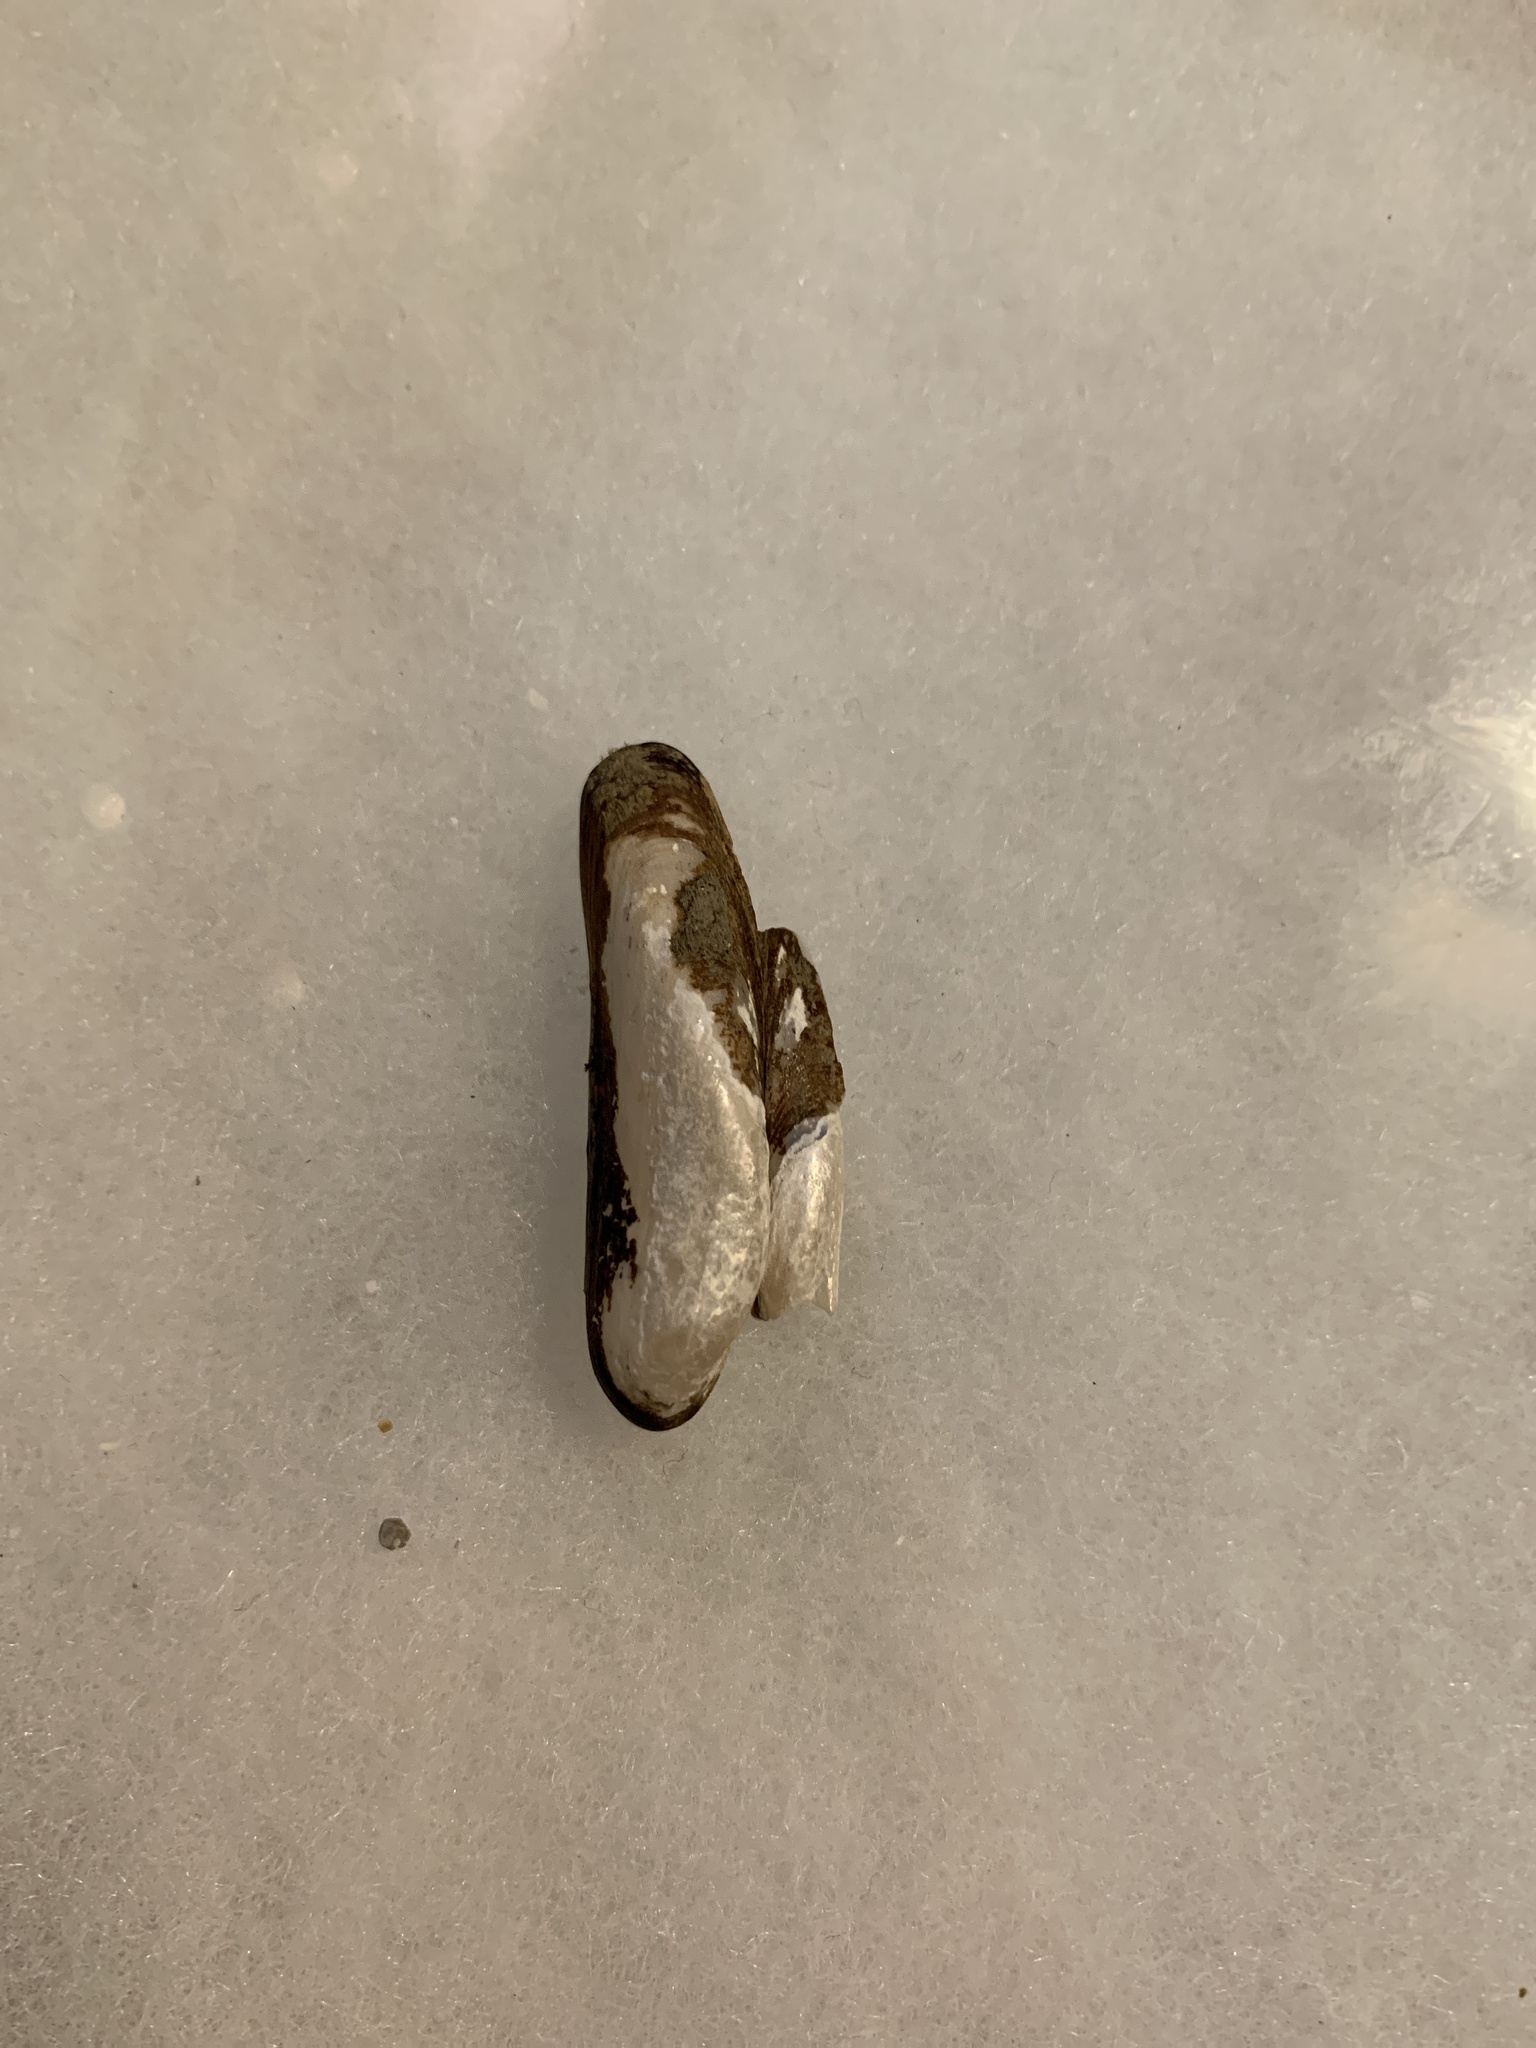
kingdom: Animalia
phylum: Mollusca
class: Bivalvia
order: Mytilida
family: Mytilidae
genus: Adula
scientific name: Adula californiensis
